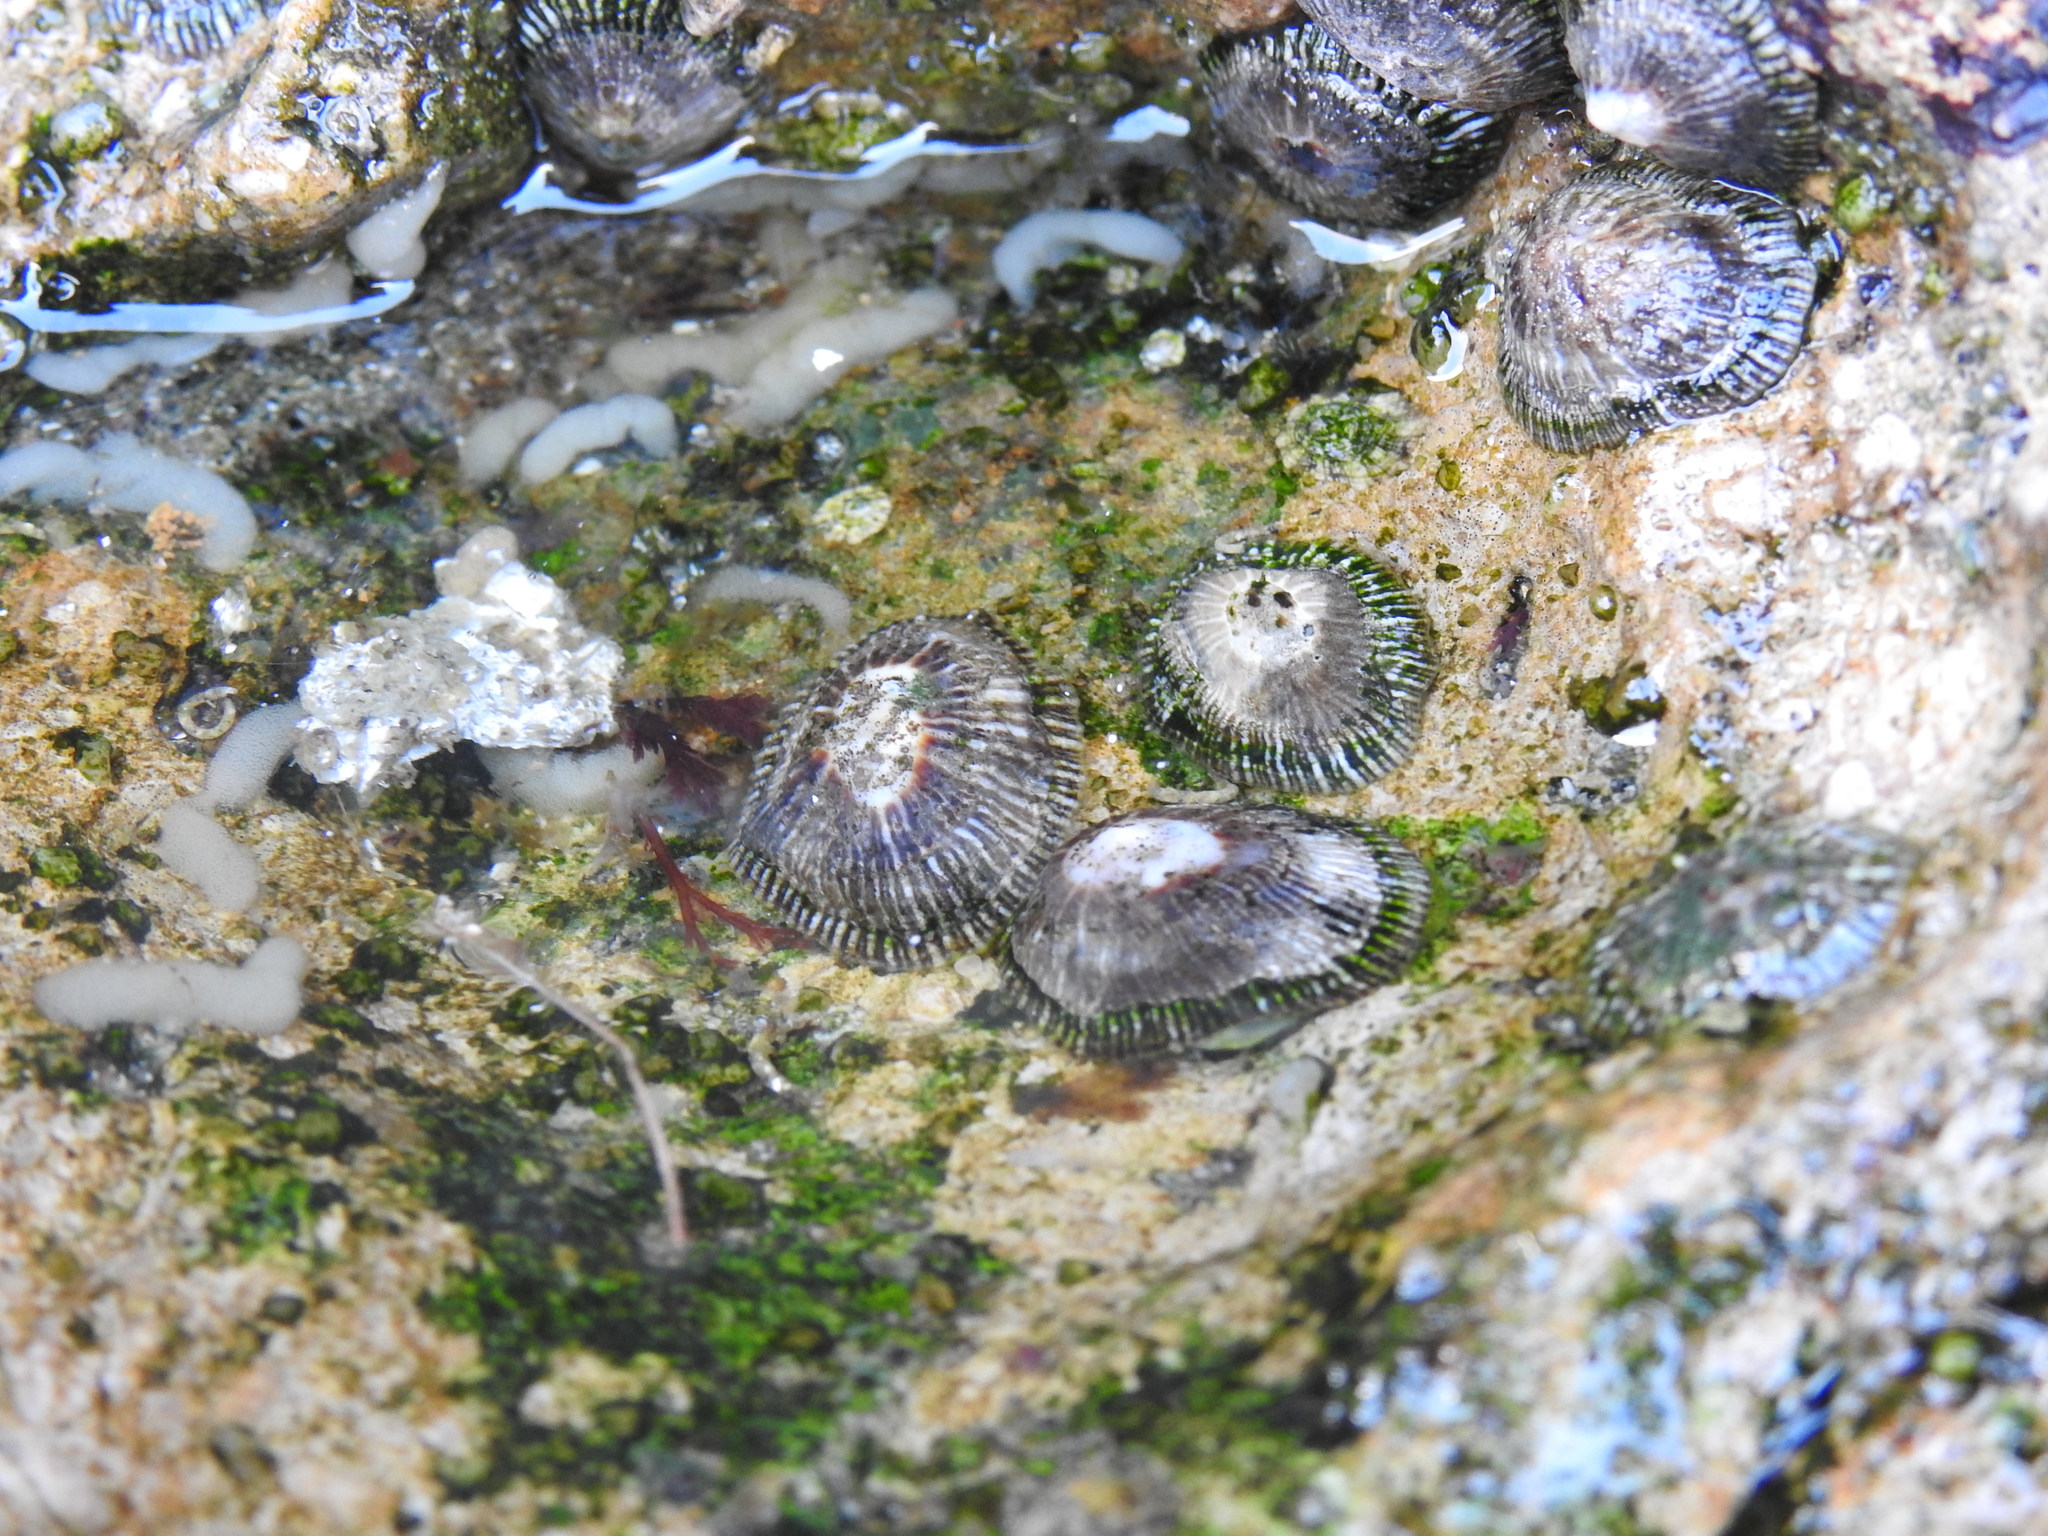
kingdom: Animalia
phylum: Mollusca
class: Gastropoda
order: Siphonariida
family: Siphonariidae
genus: Siphonaria
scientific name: Siphonaria pectinata
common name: Striped false limpet
